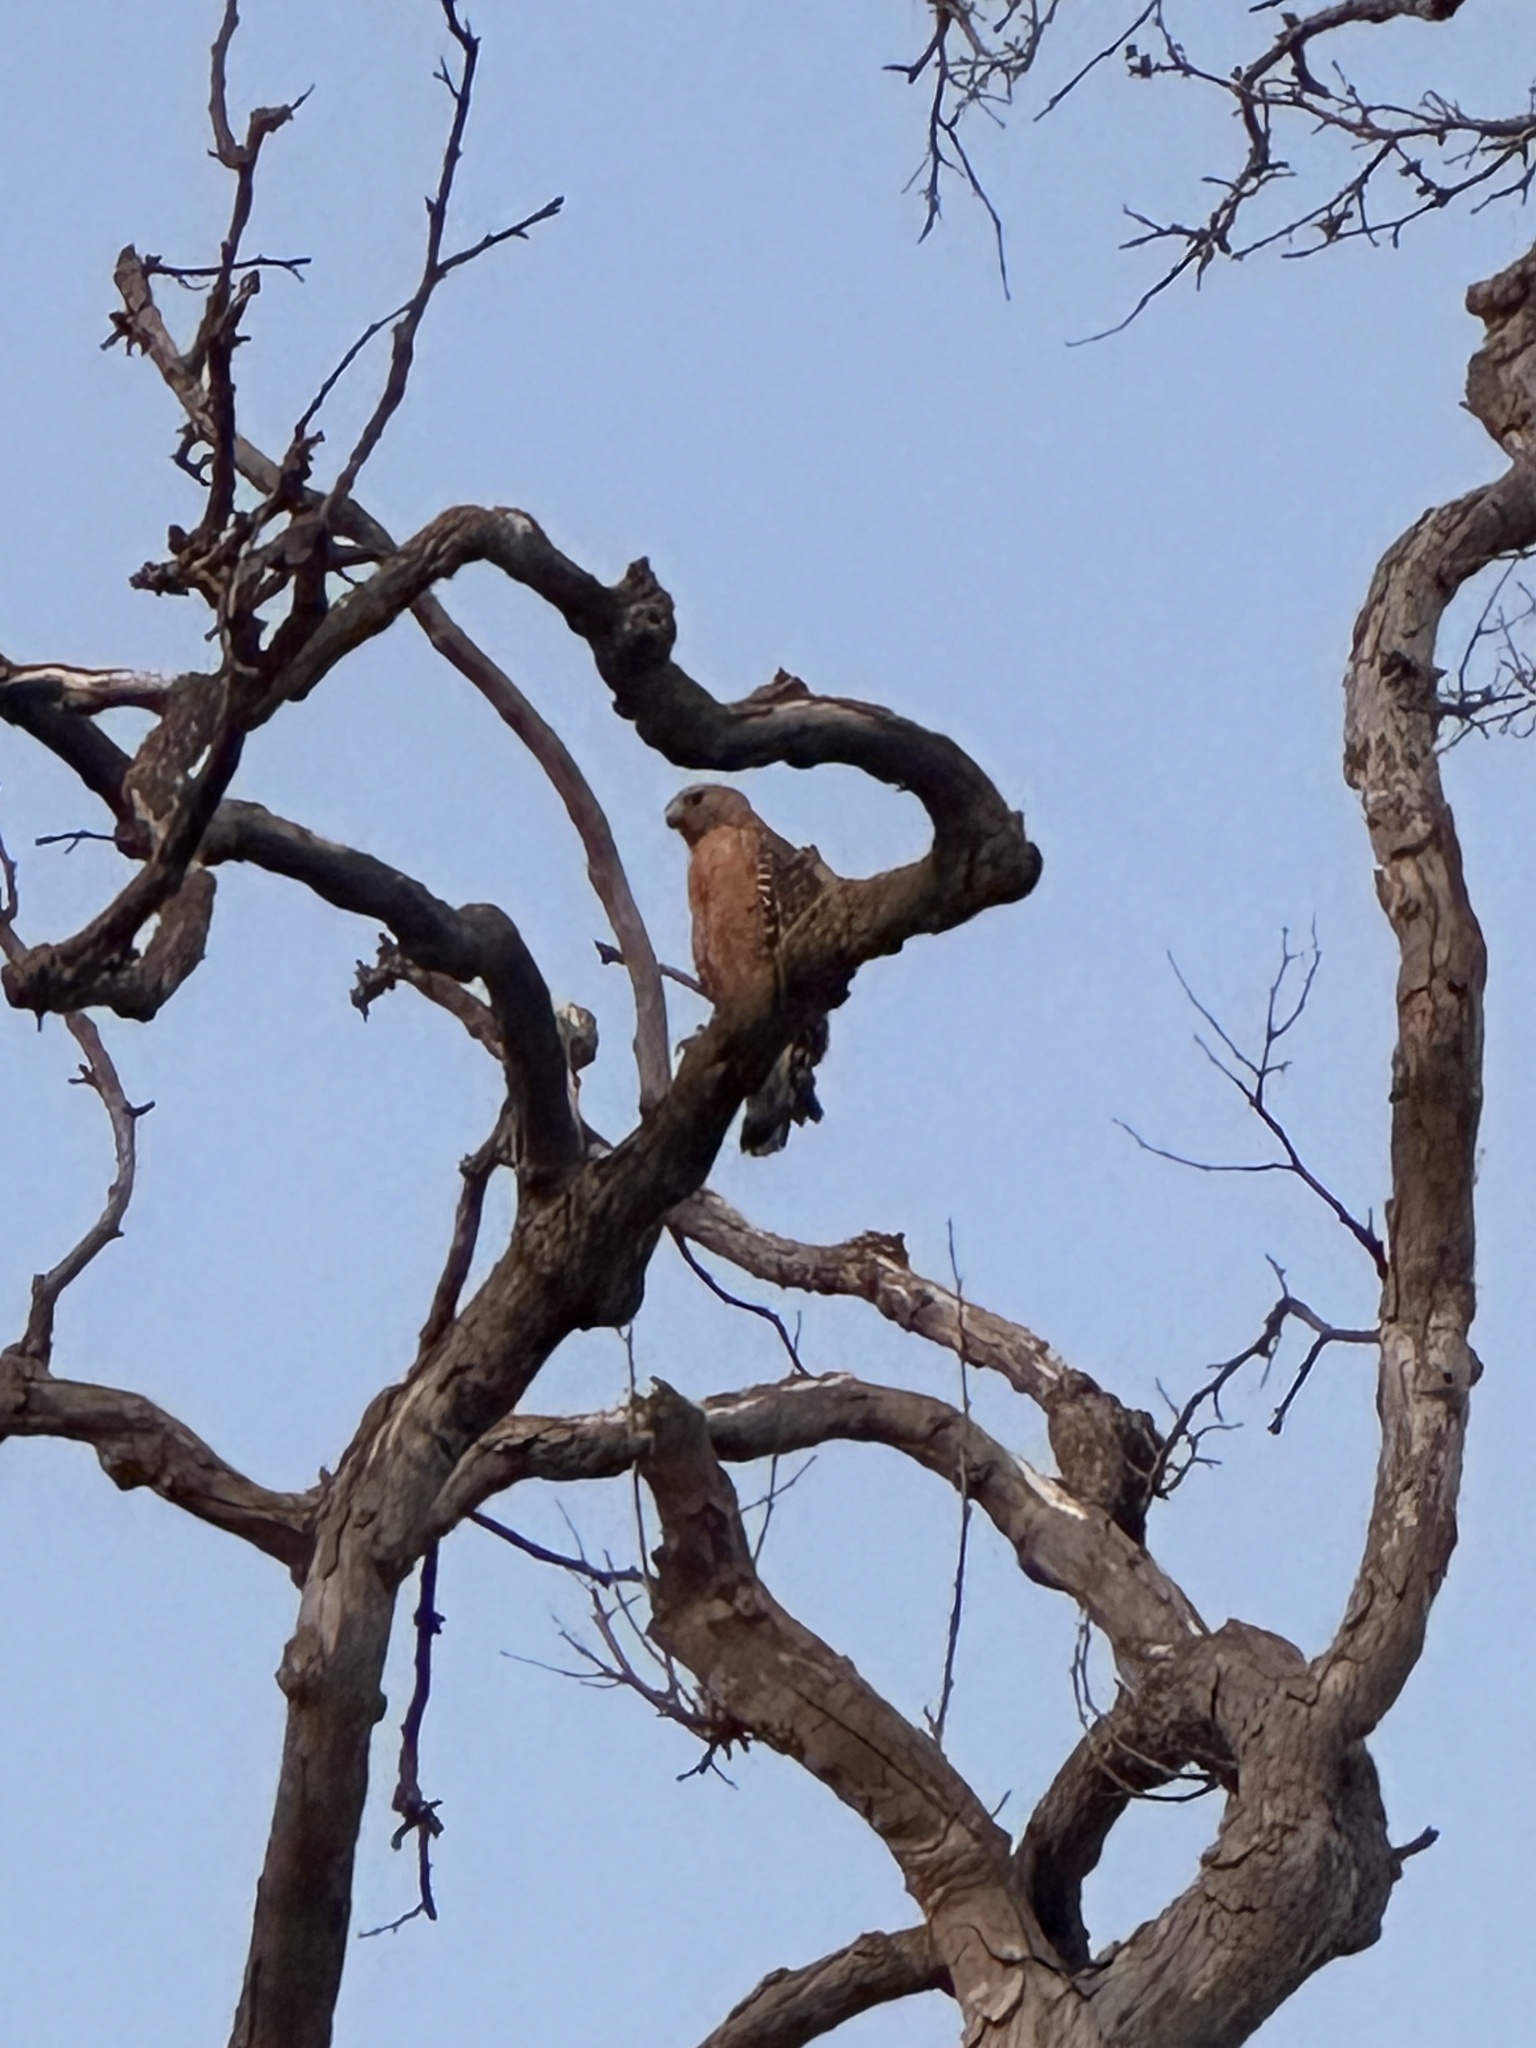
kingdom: Animalia
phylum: Chordata
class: Aves
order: Accipitriformes
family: Accipitridae
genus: Buteo
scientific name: Buteo lineatus
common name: Red-shouldered hawk
